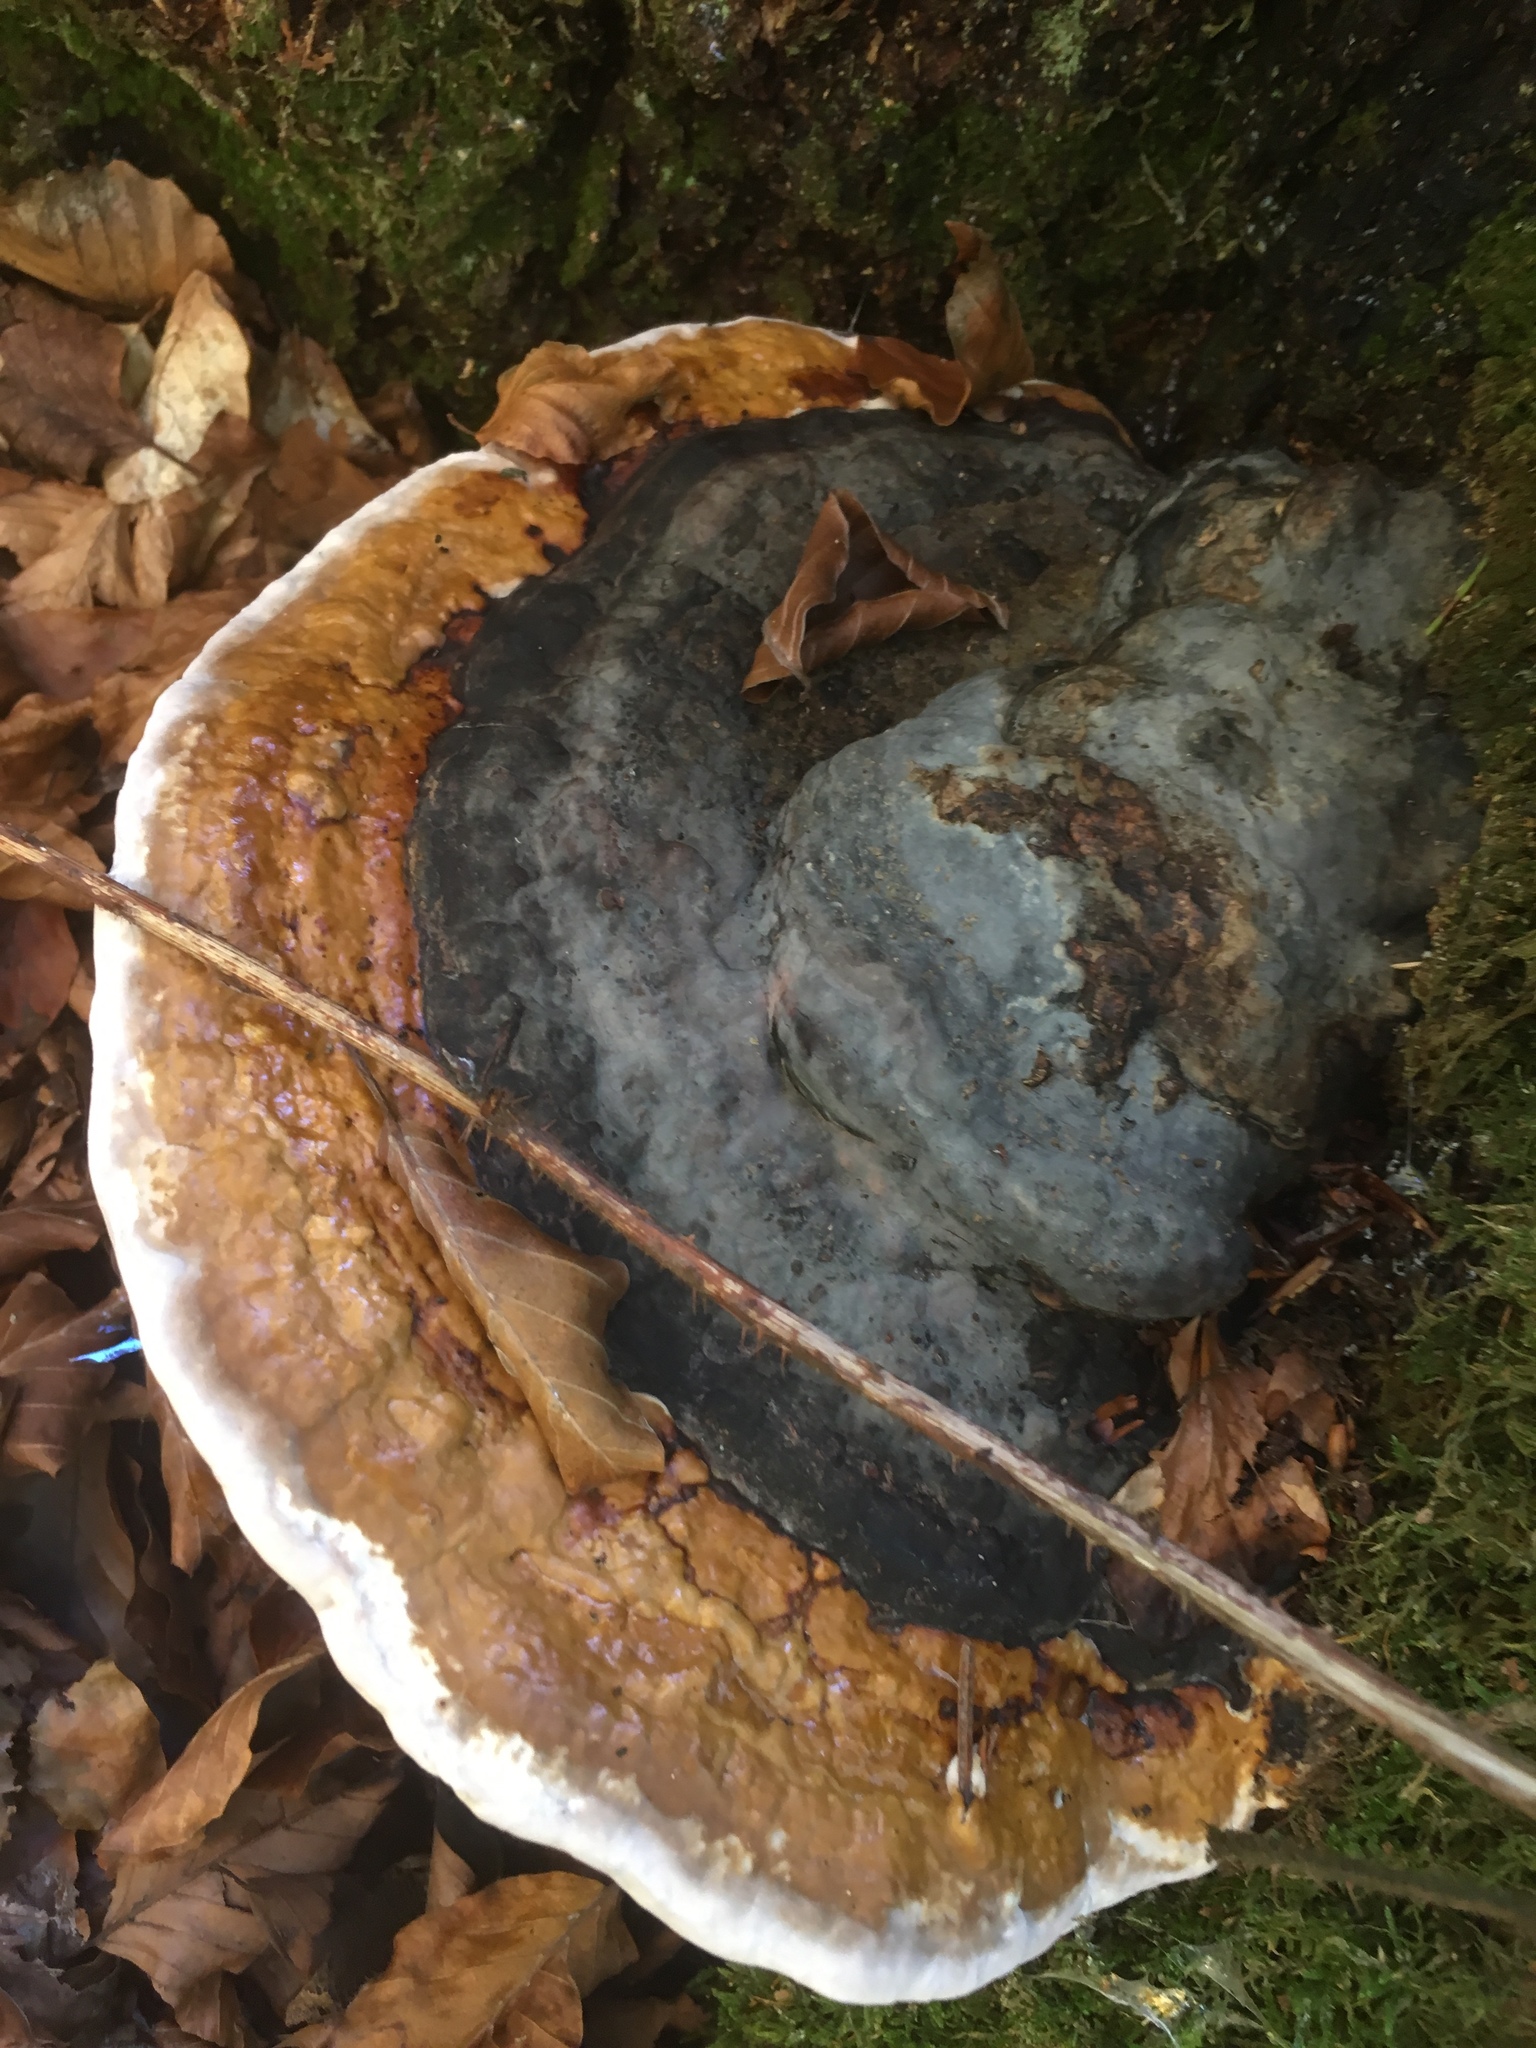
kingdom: Fungi
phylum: Basidiomycota
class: Agaricomycetes
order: Polyporales
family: Fomitopsidaceae
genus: Fomitopsis
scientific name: Fomitopsis pinicola
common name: Red-belted bracket
